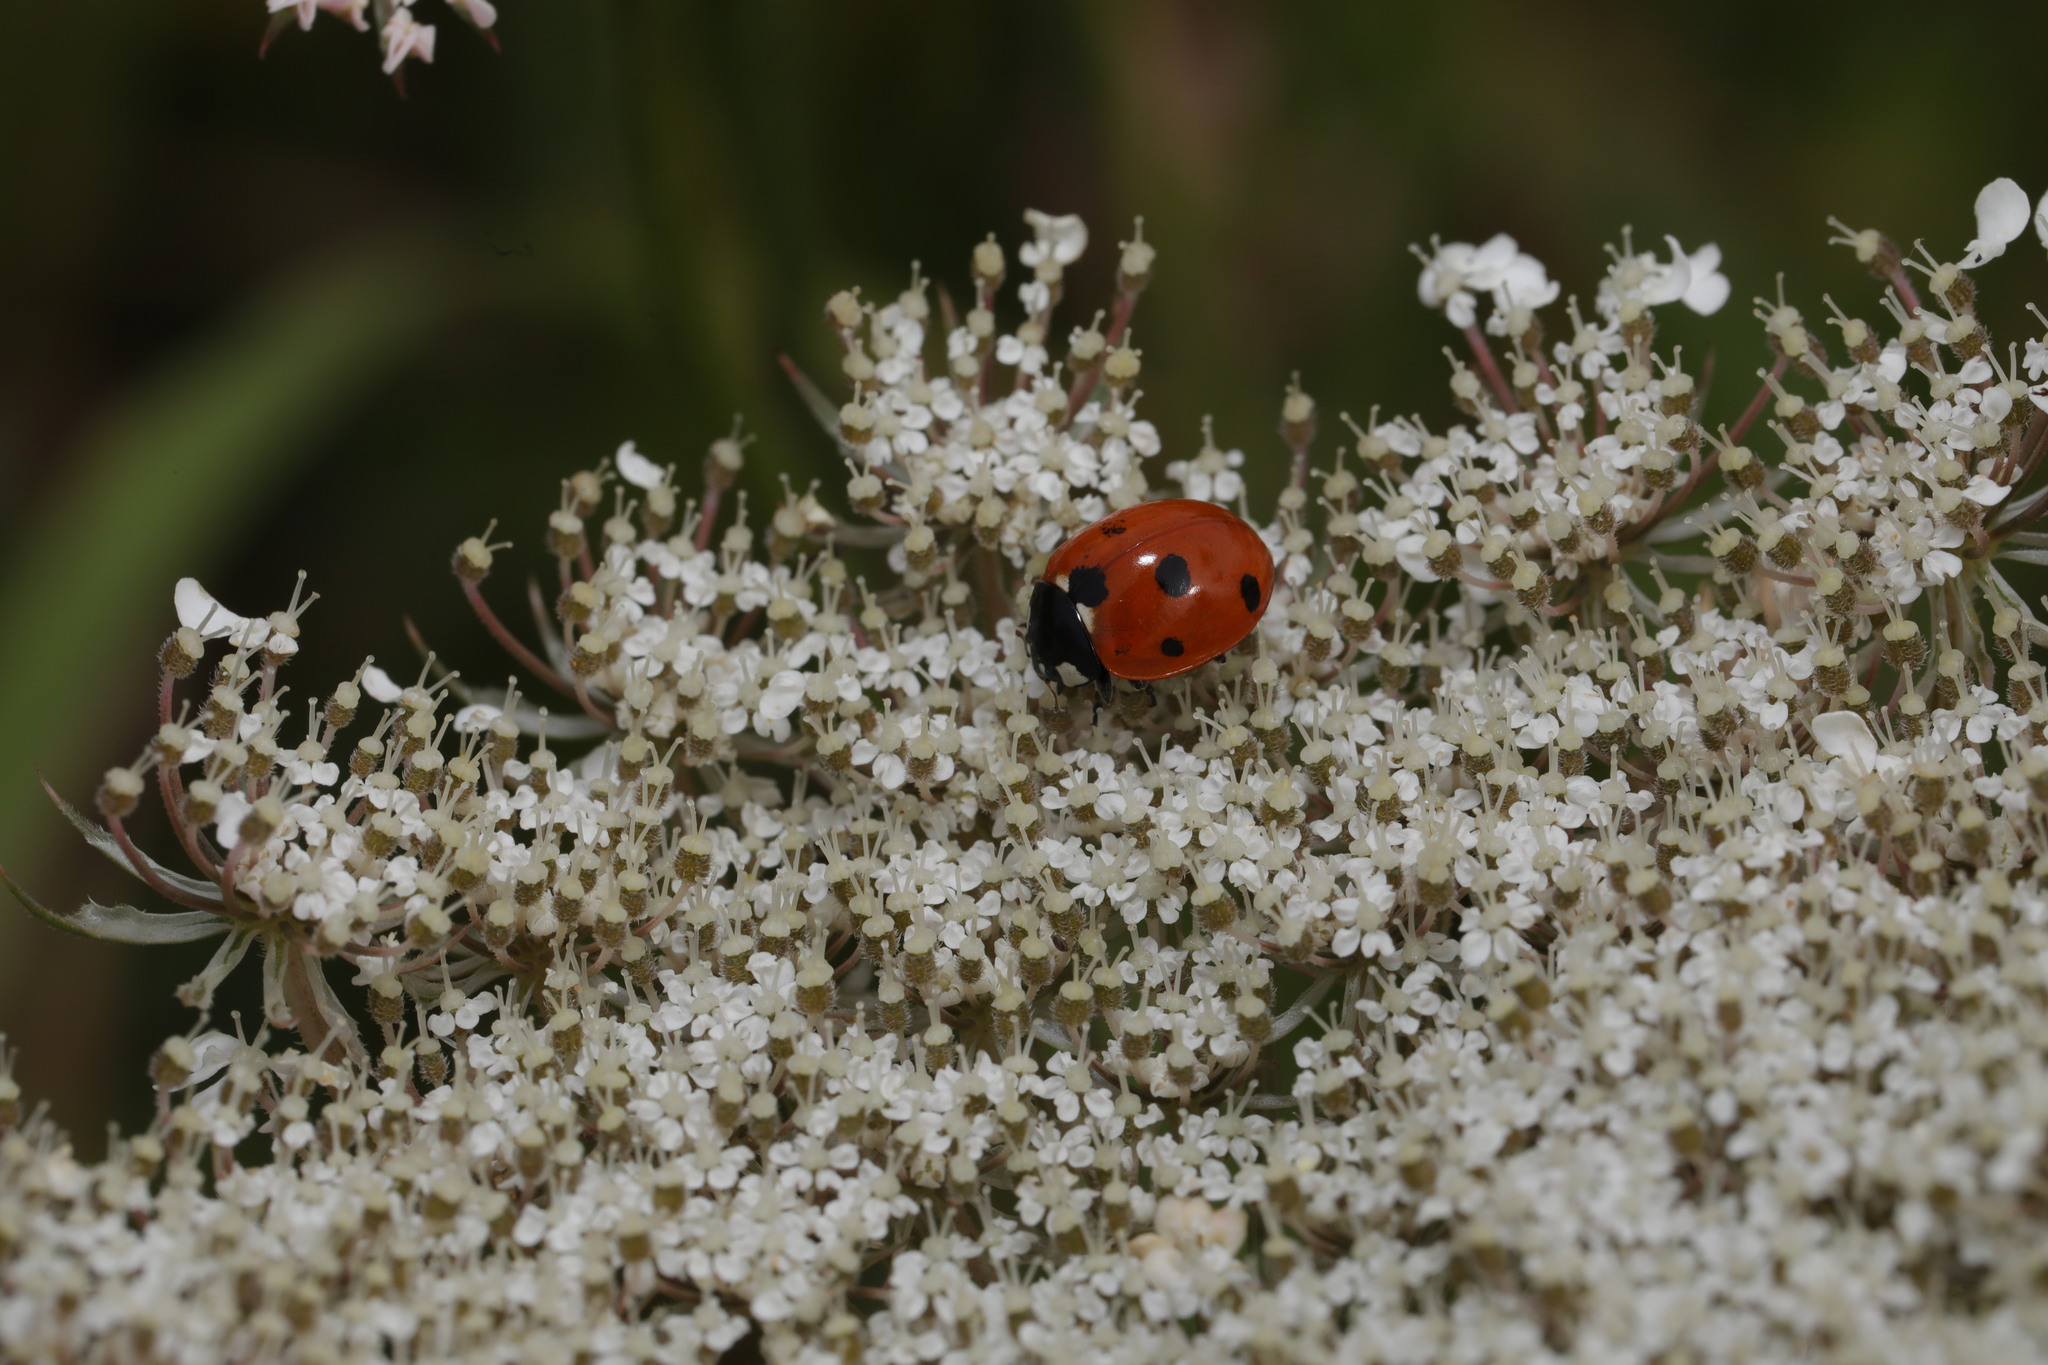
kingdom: Animalia
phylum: Arthropoda
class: Insecta
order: Coleoptera
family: Coccinellidae
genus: Coccinella
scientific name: Coccinella septempunctata
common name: Sevenspotted lady beetle
